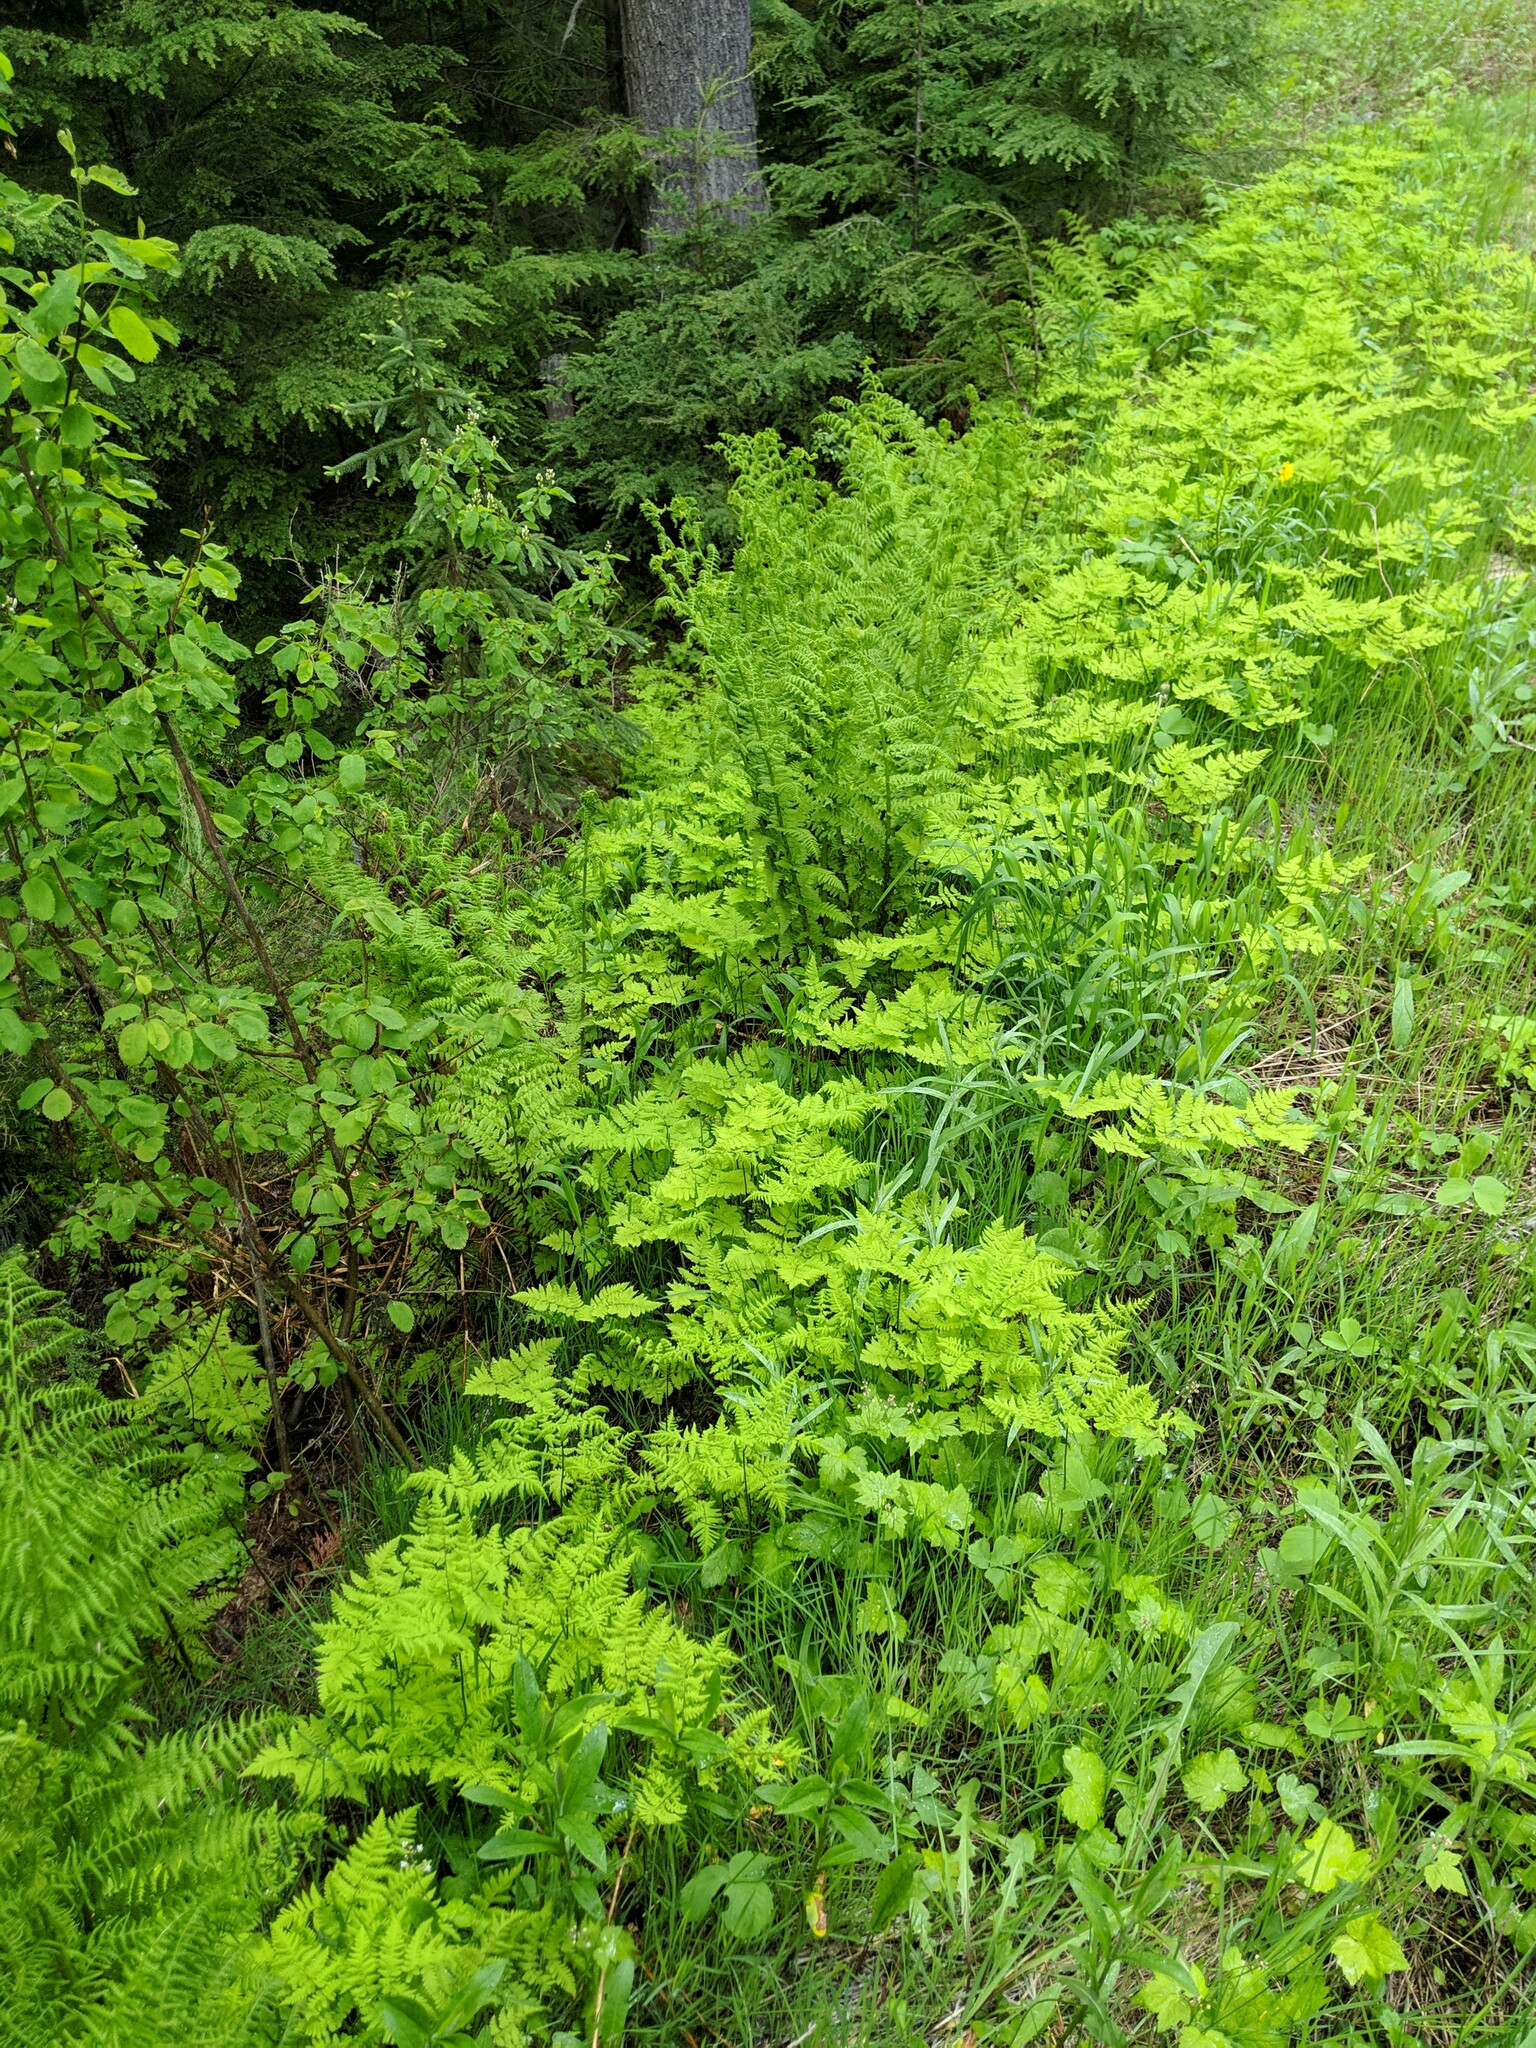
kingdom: Plantae
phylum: Tracheophyta
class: Polypodiopsida
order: Polypodiales
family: Cystopteridaceae
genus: Gymnocarpium
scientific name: Gymnocarpium disjunctum
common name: Western oak fern
